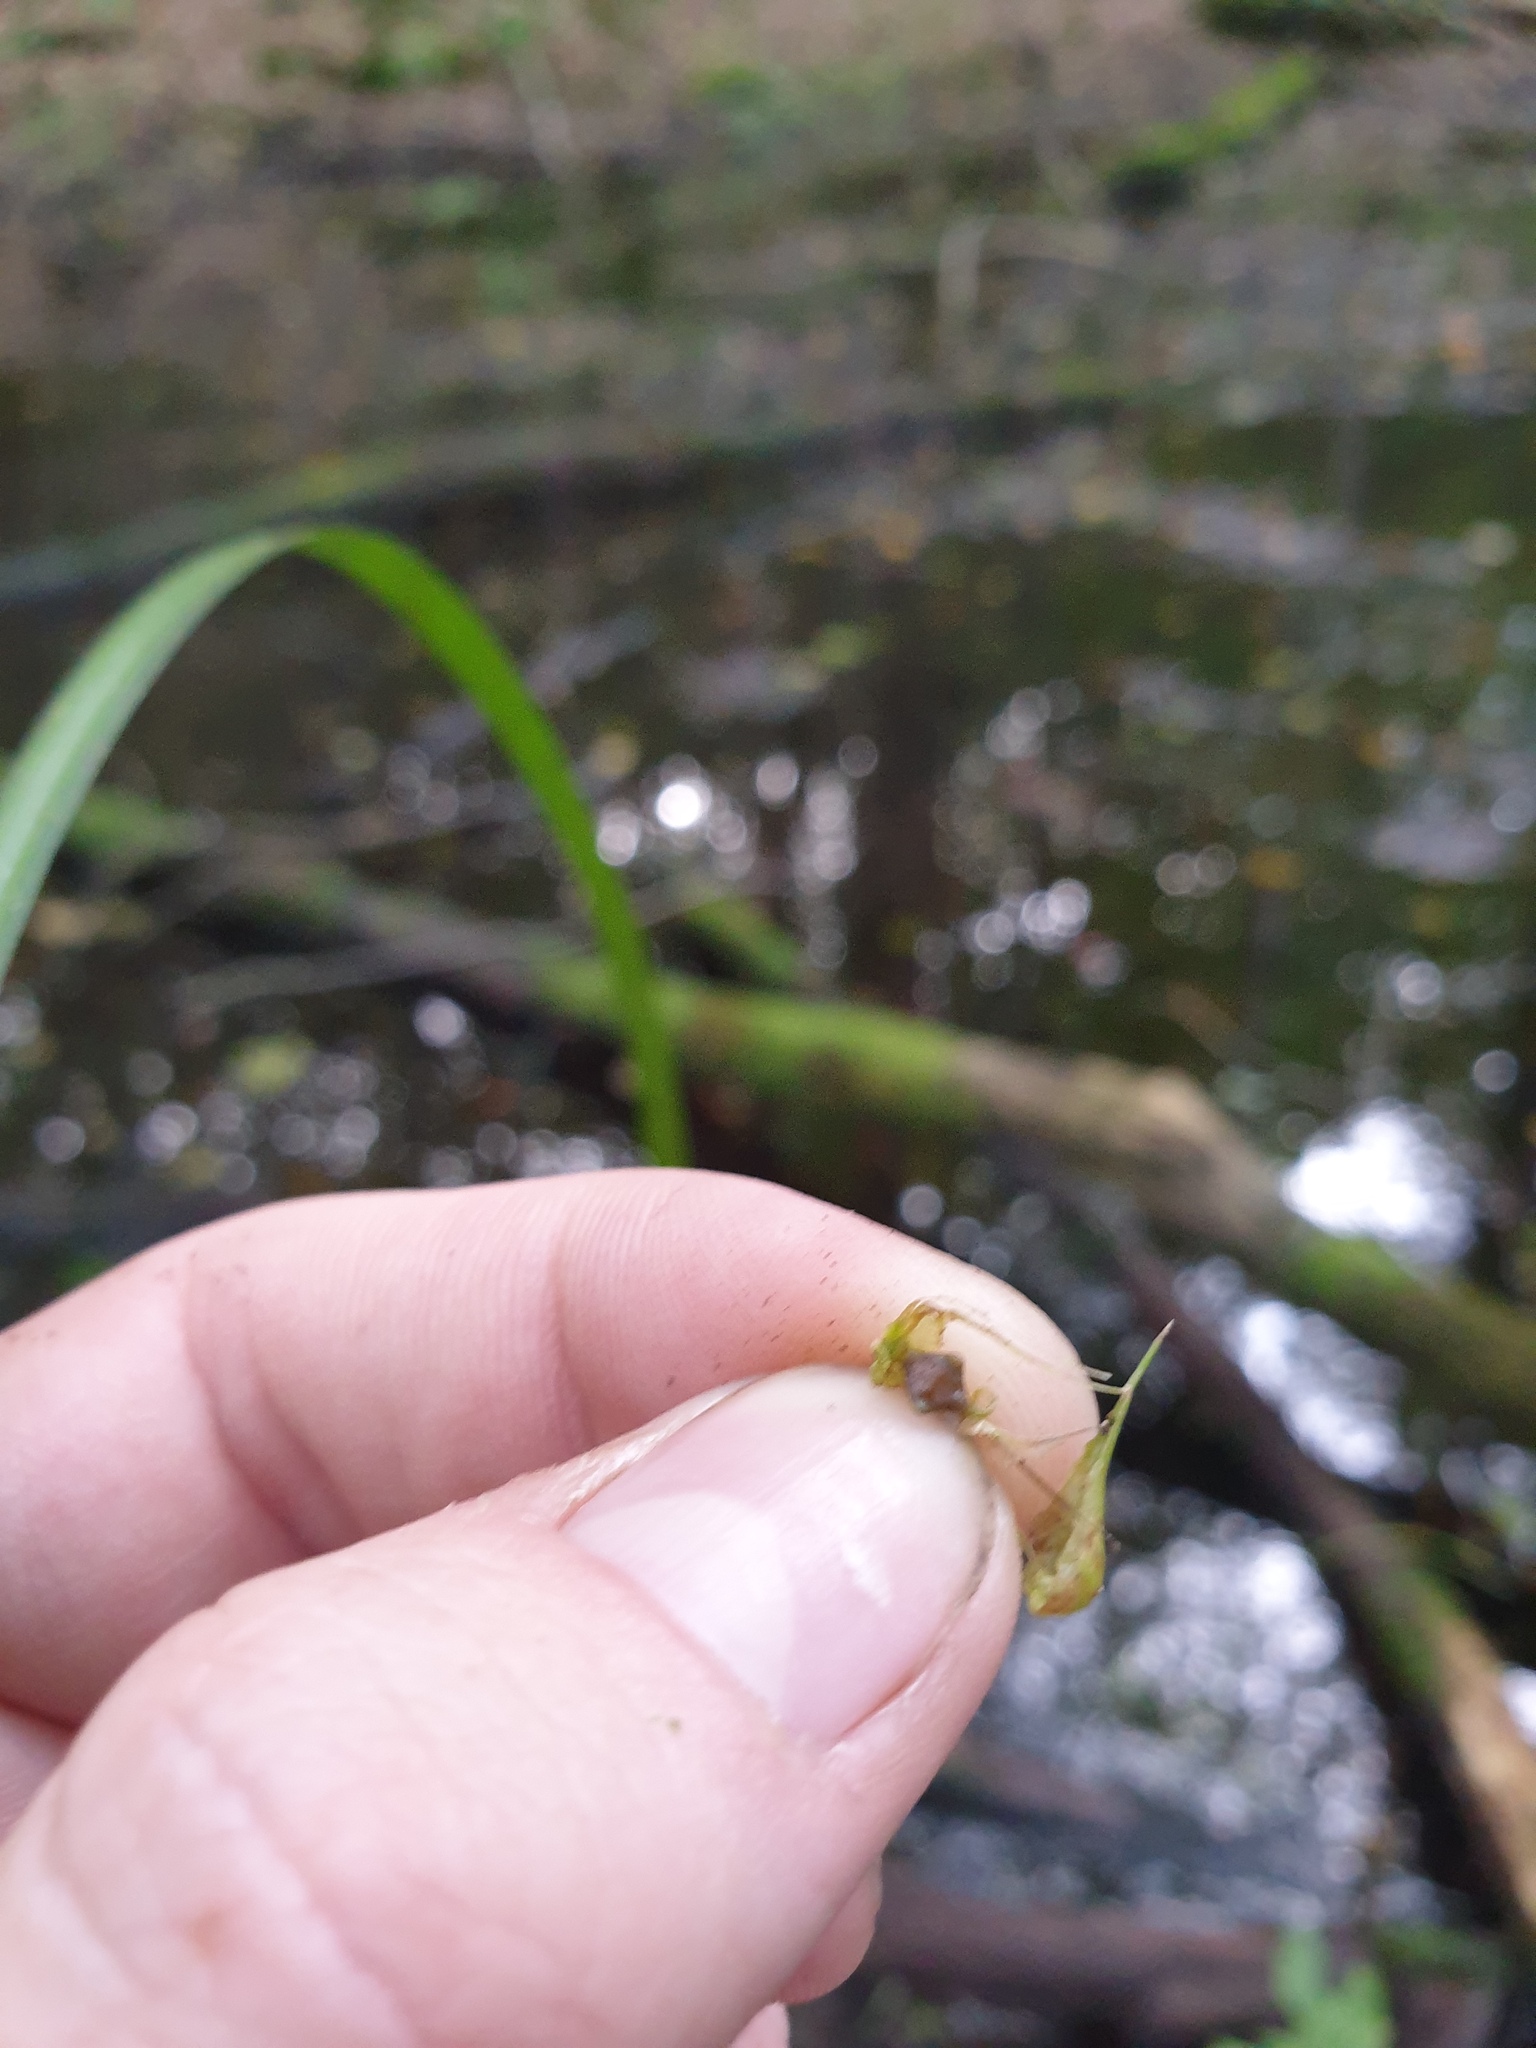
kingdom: Plantae
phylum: Tracheophyta
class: Liliopsida
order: Poales
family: Cyperaceae
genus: Carex
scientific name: Carex lupuliformis
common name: False hop sedge
